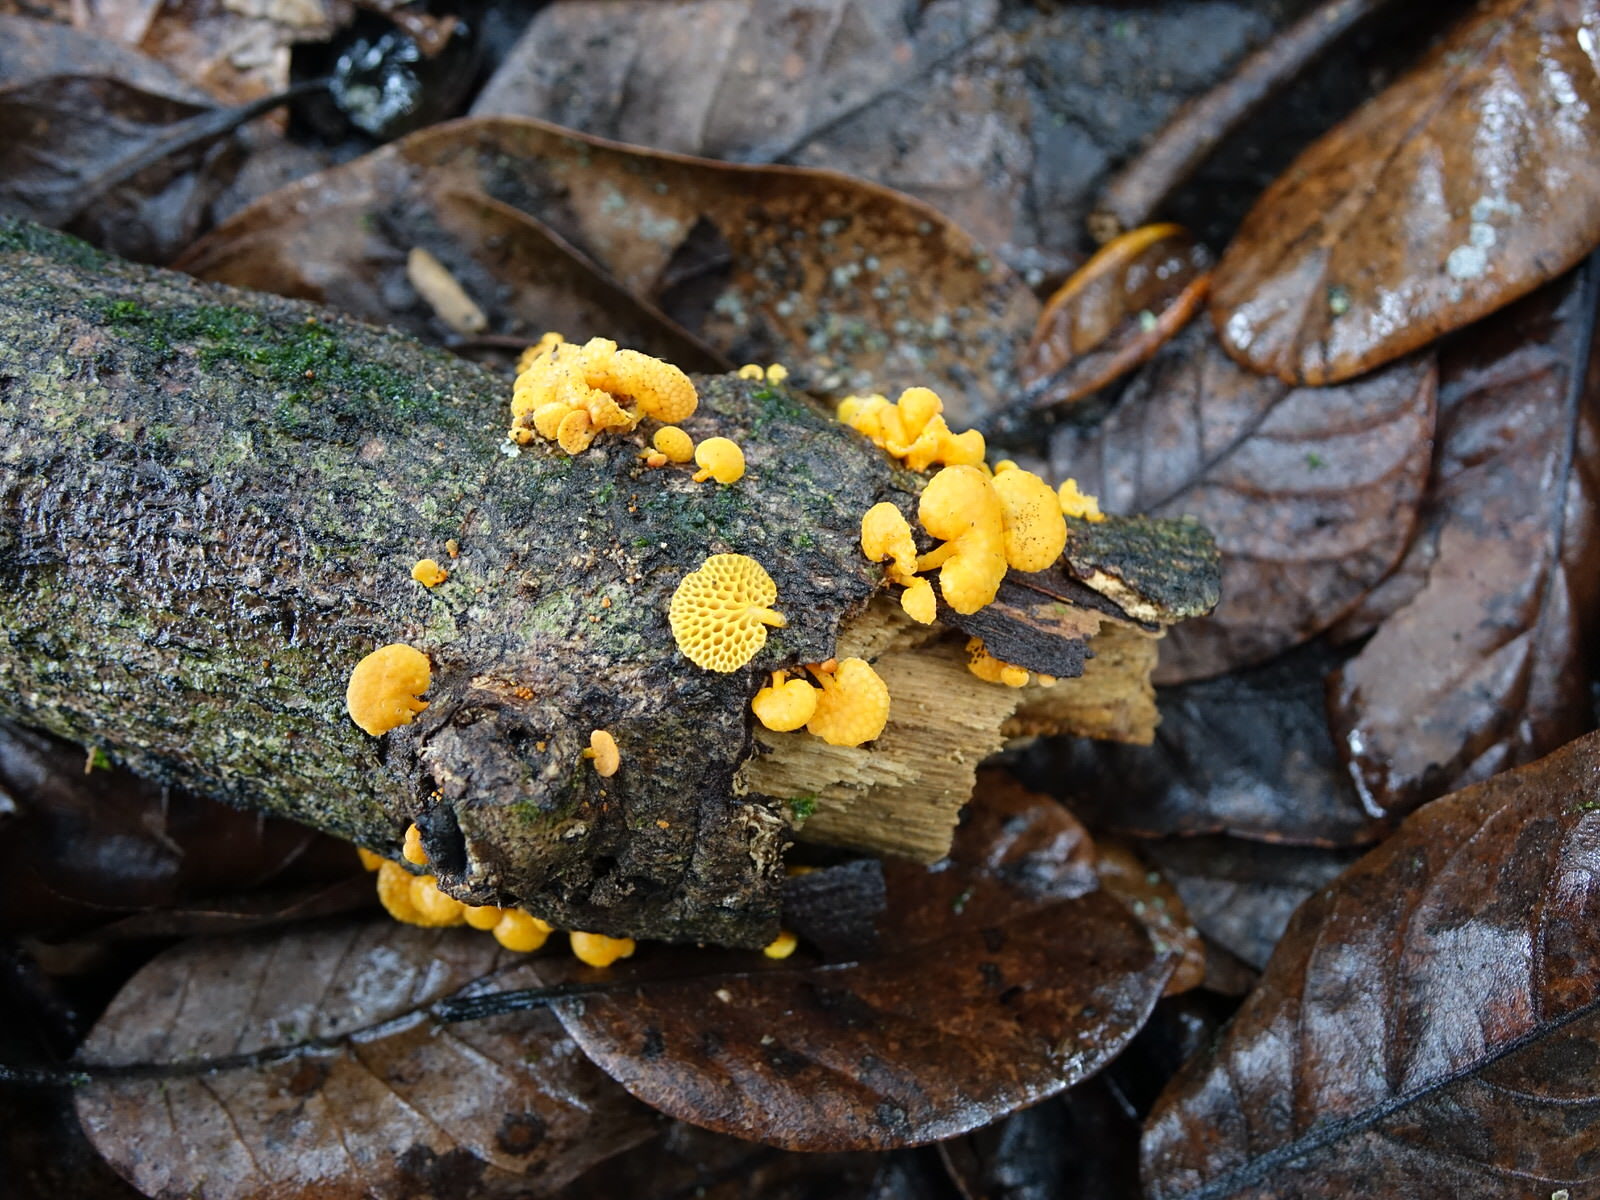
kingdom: Fungi
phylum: Basidiomycota
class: Agaricomycetes
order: Agaricales
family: Mycenaceae
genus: Favolaschia
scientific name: Favolaschia claudopus
